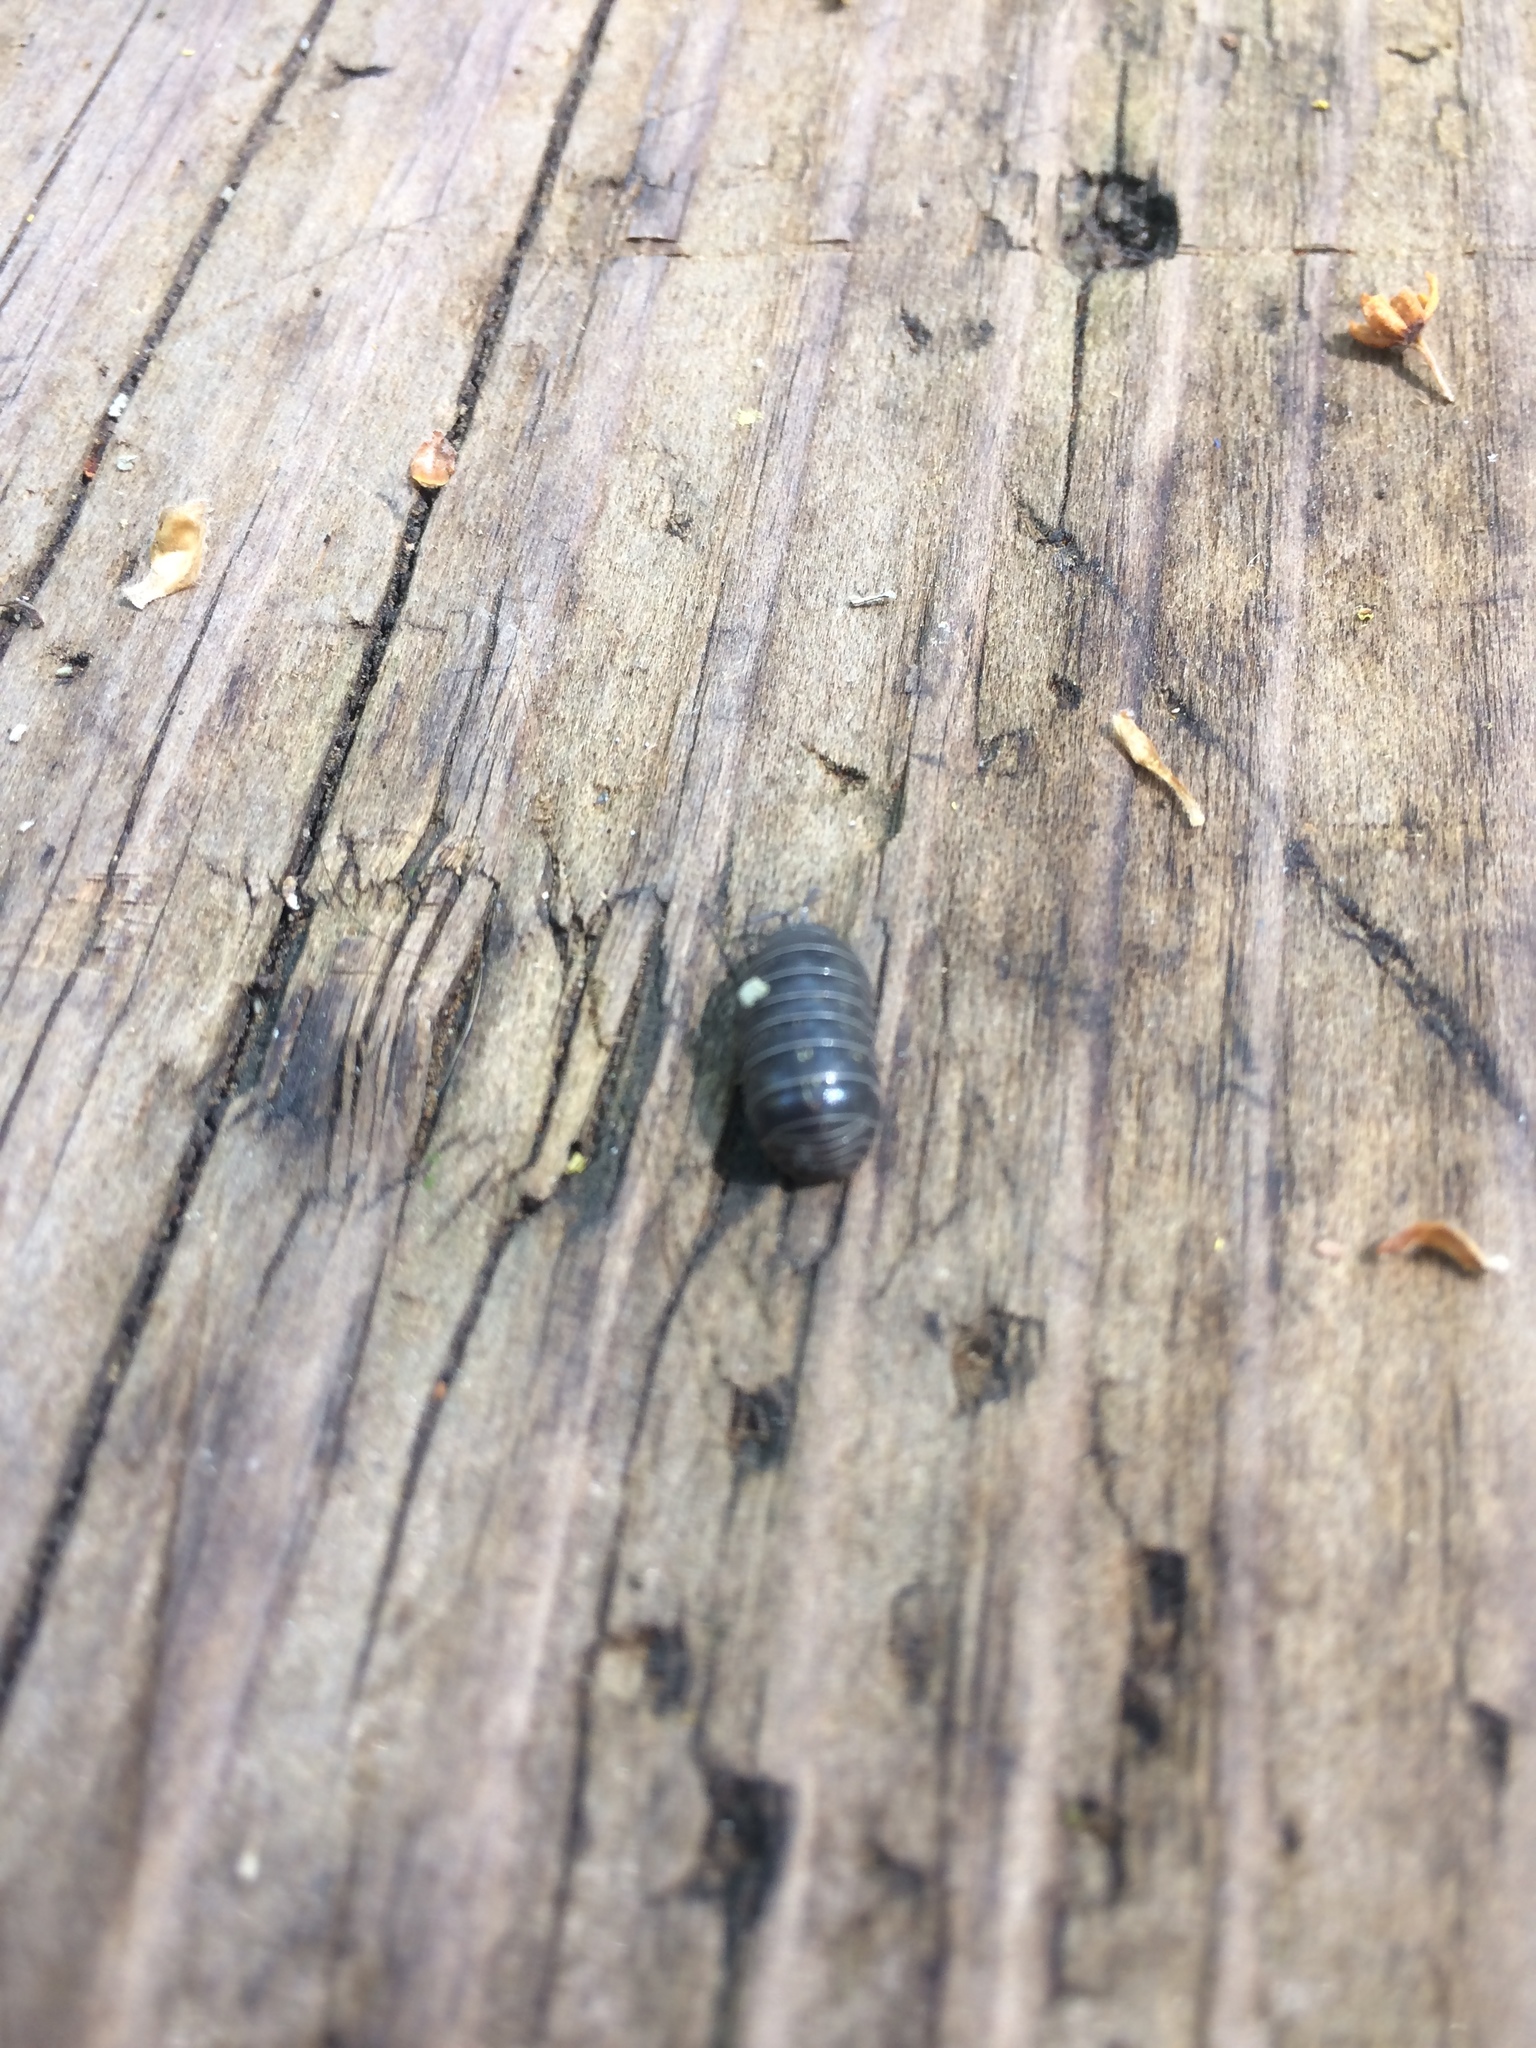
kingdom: Animalia
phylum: Arthropoda
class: Malacostraca
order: Isopoda
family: Armadillidiidae
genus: Armadillidium
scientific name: Armadillidium vulgare
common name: Common pill woodlouse
